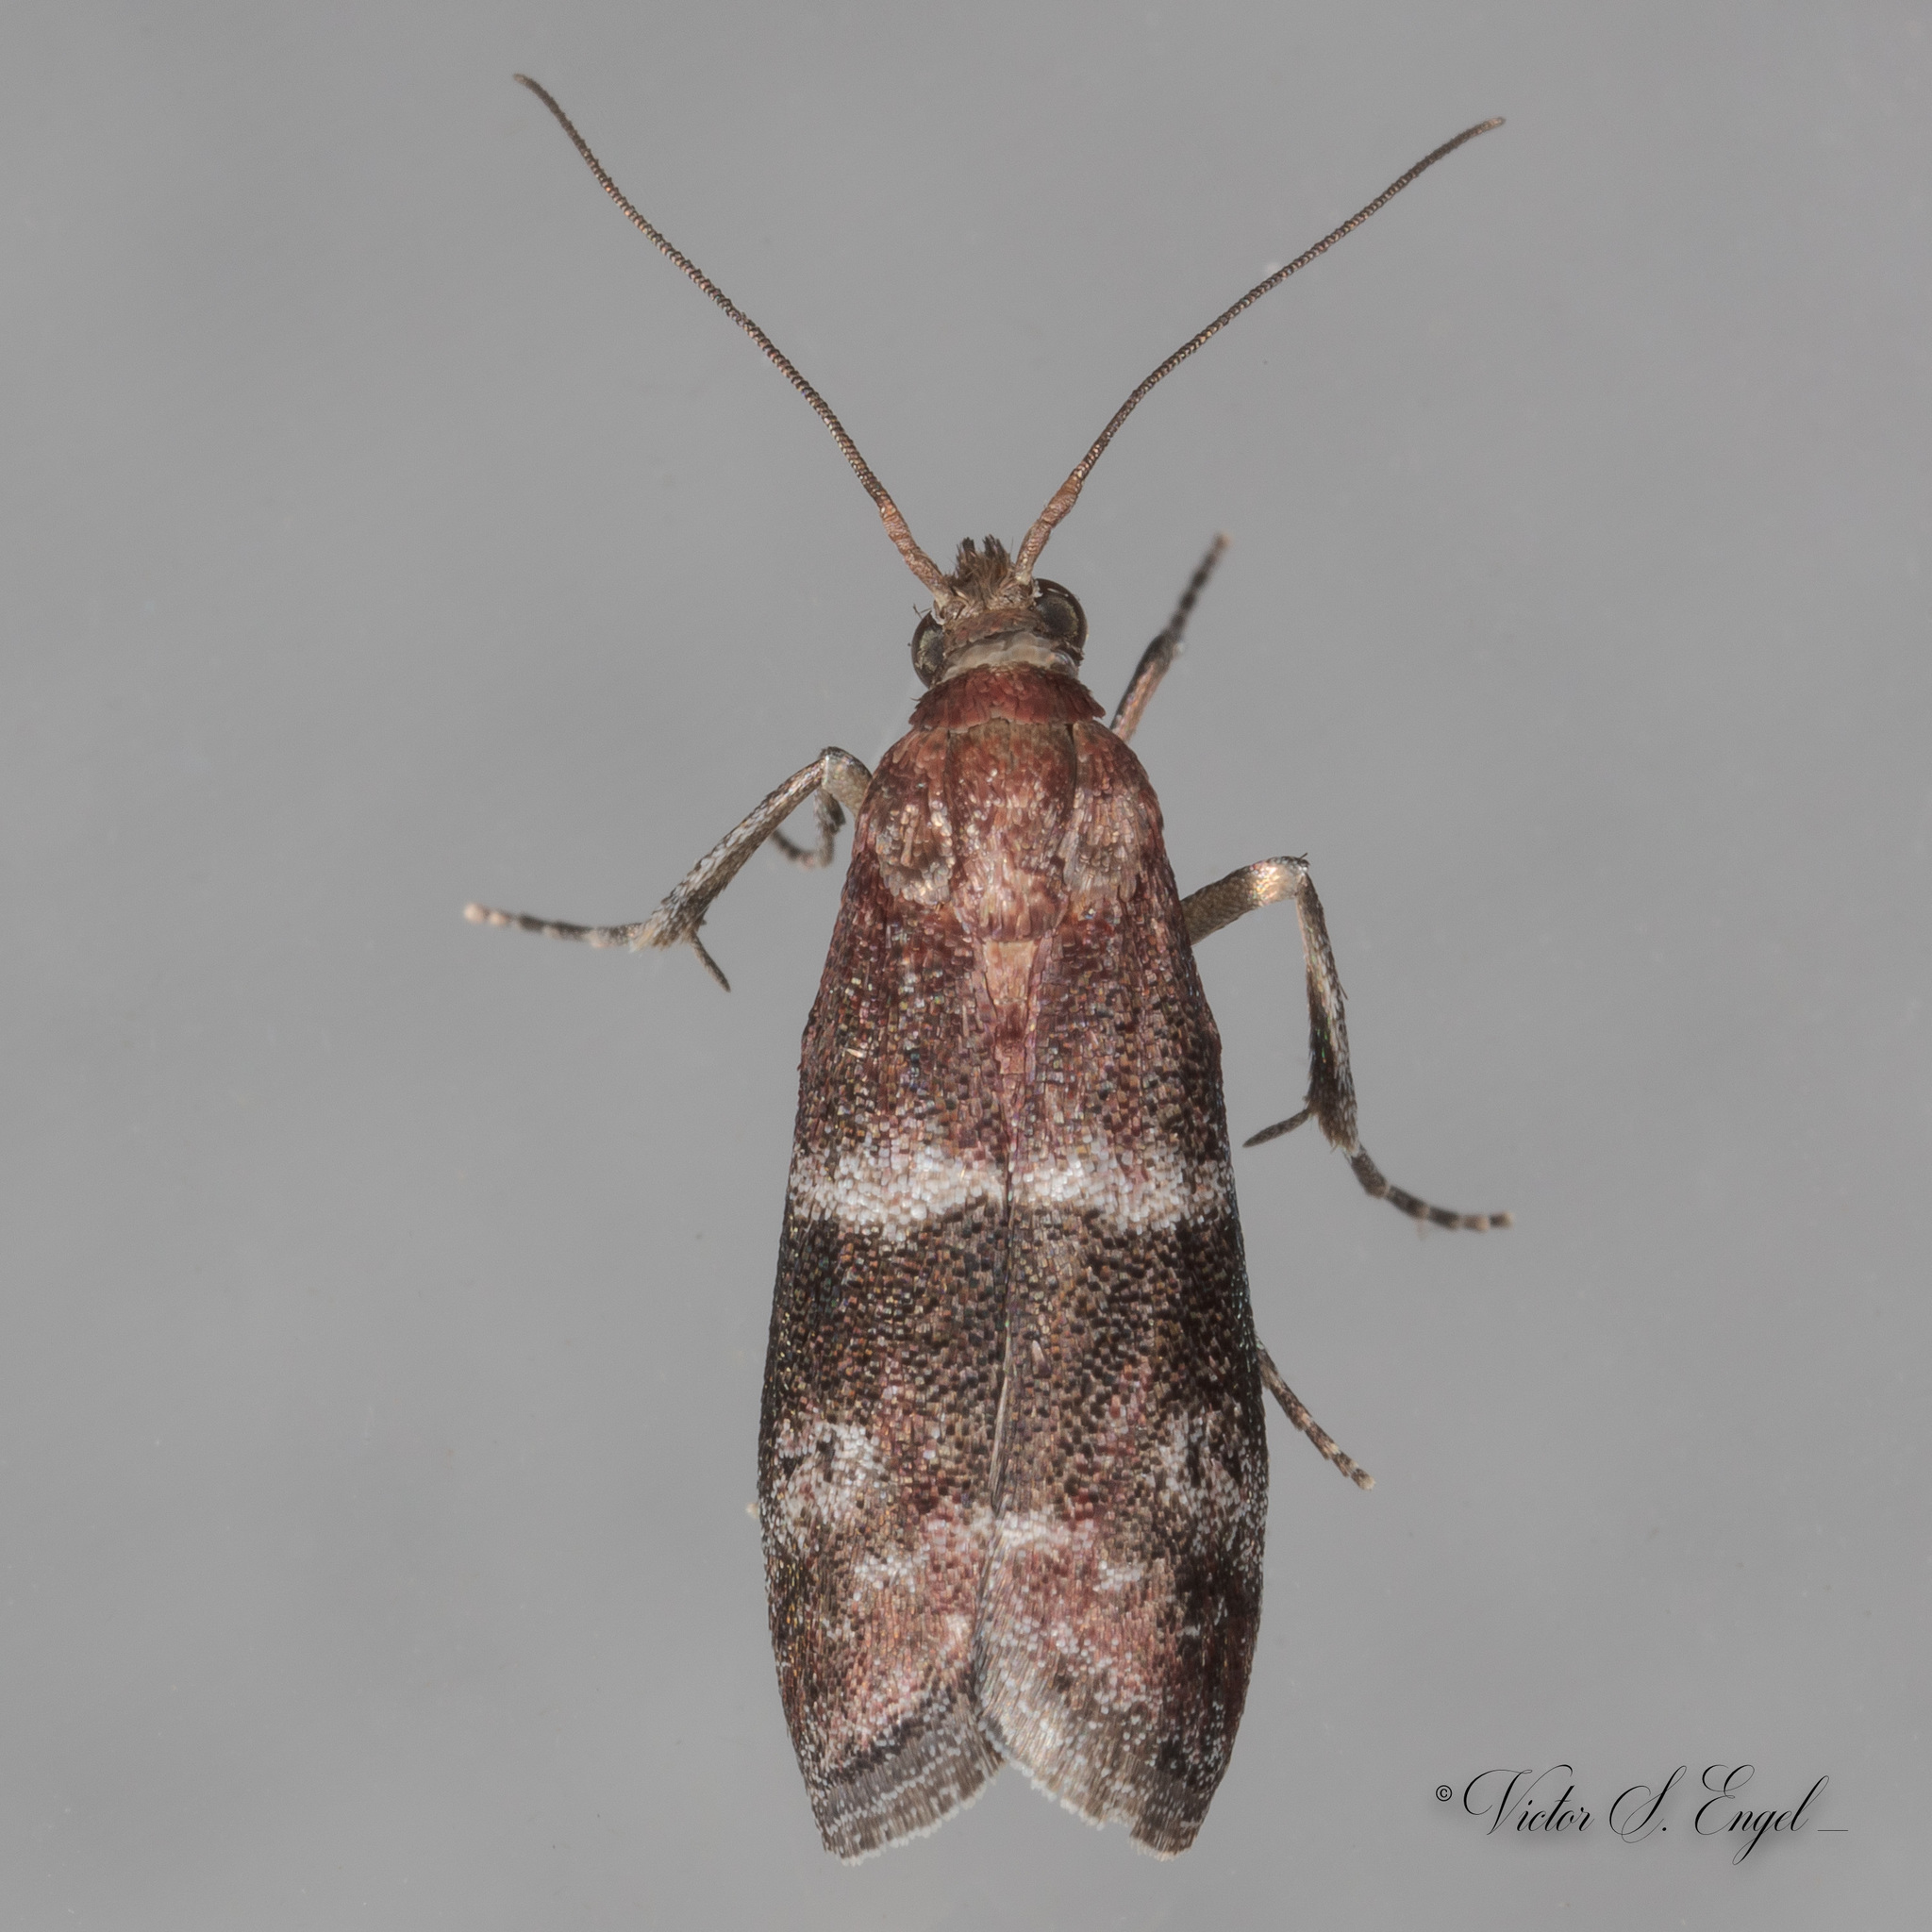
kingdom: Animalia
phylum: Arthropoda
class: Insecta
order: Lepidoptera
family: Pyralidae
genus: Moodna
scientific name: Moodna ostrinella
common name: Darker moodna moth
